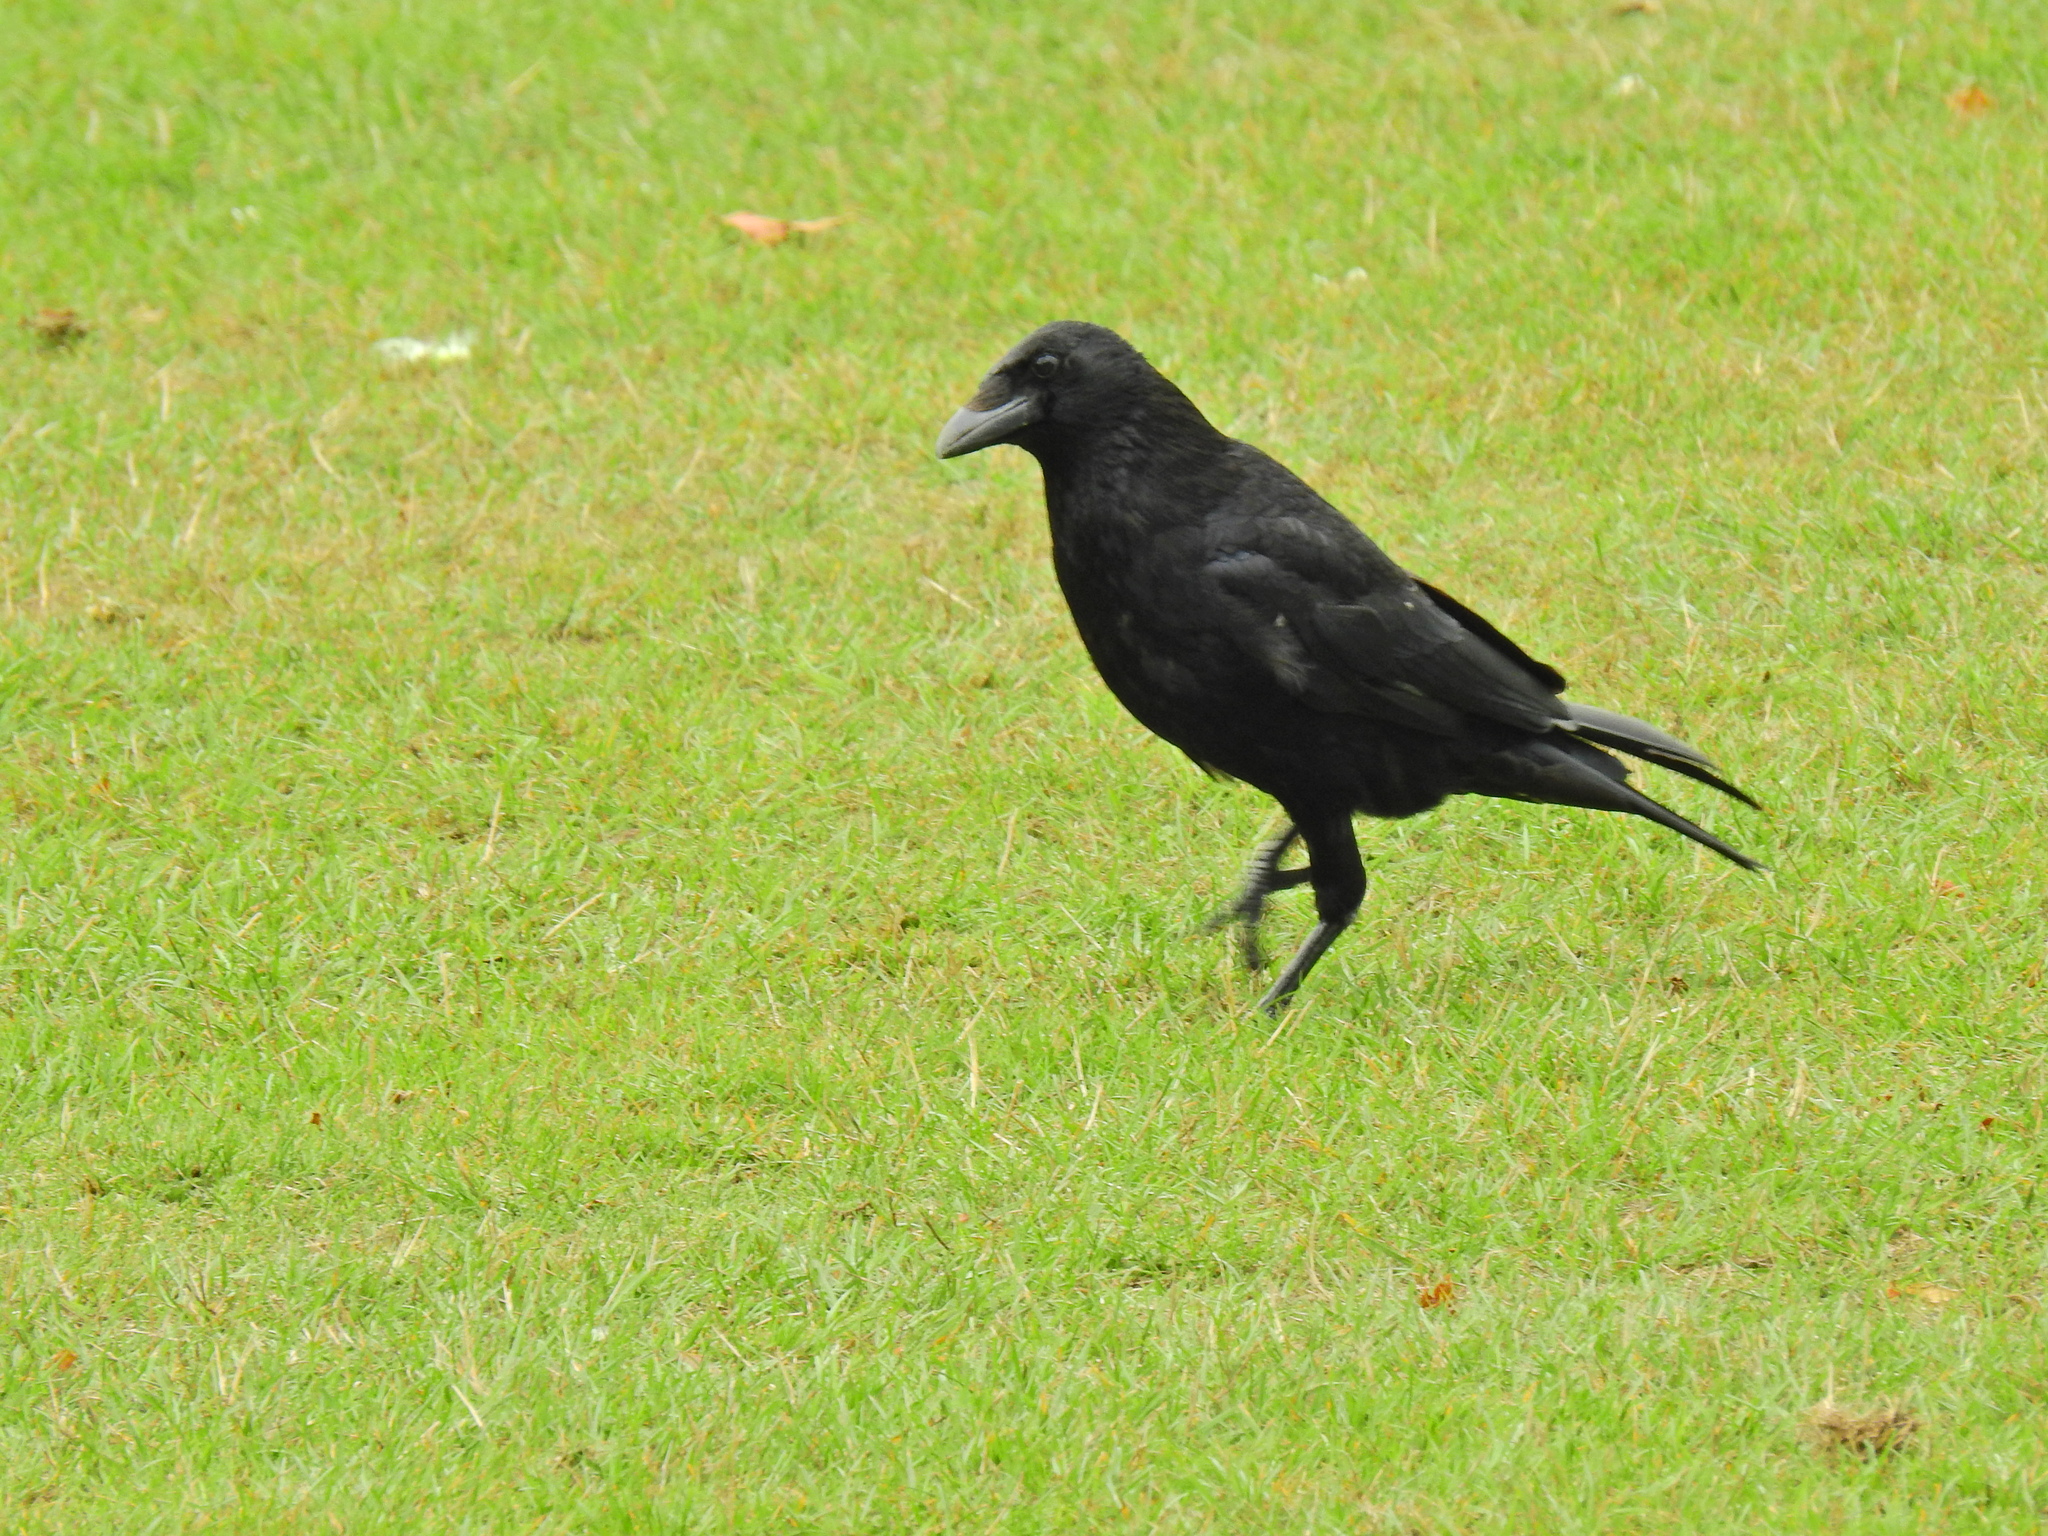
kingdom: Animalia
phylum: Chordata
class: Aves
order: Passeriformes
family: Corvidae
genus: Corvus
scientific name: Corvus corone
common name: Carrion crow
